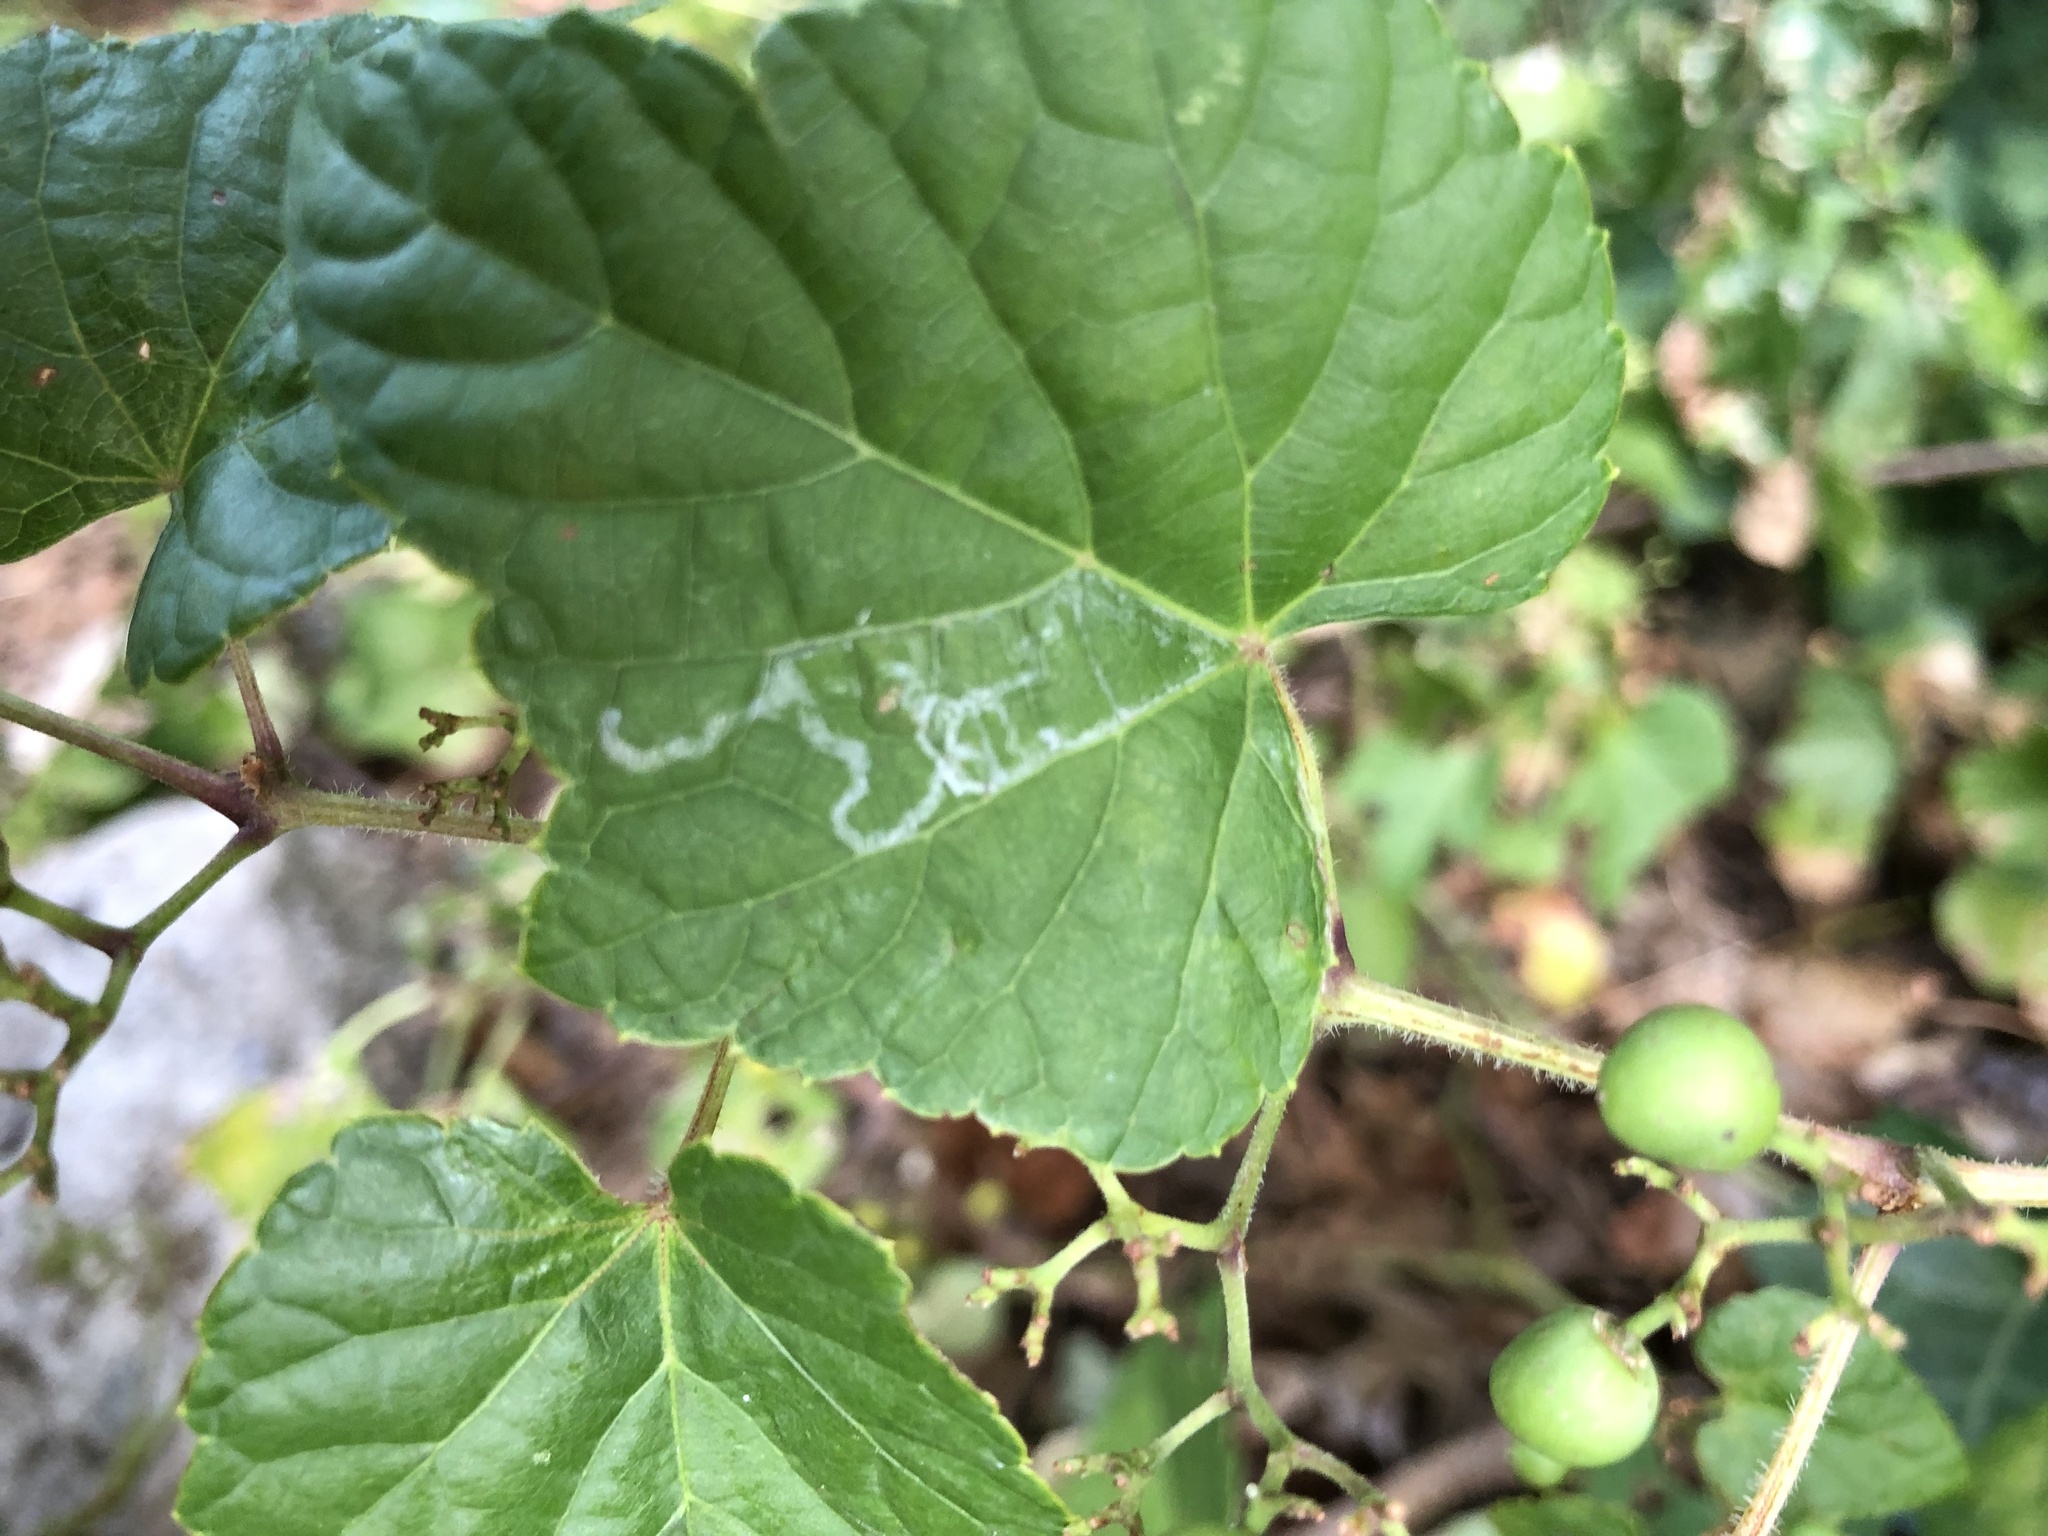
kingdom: Animalia
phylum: Arthropoda
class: Insecta
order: Lepidoptera
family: Gracillariidae
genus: Phyllocnistis
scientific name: Phyllocnistis vitegenella
